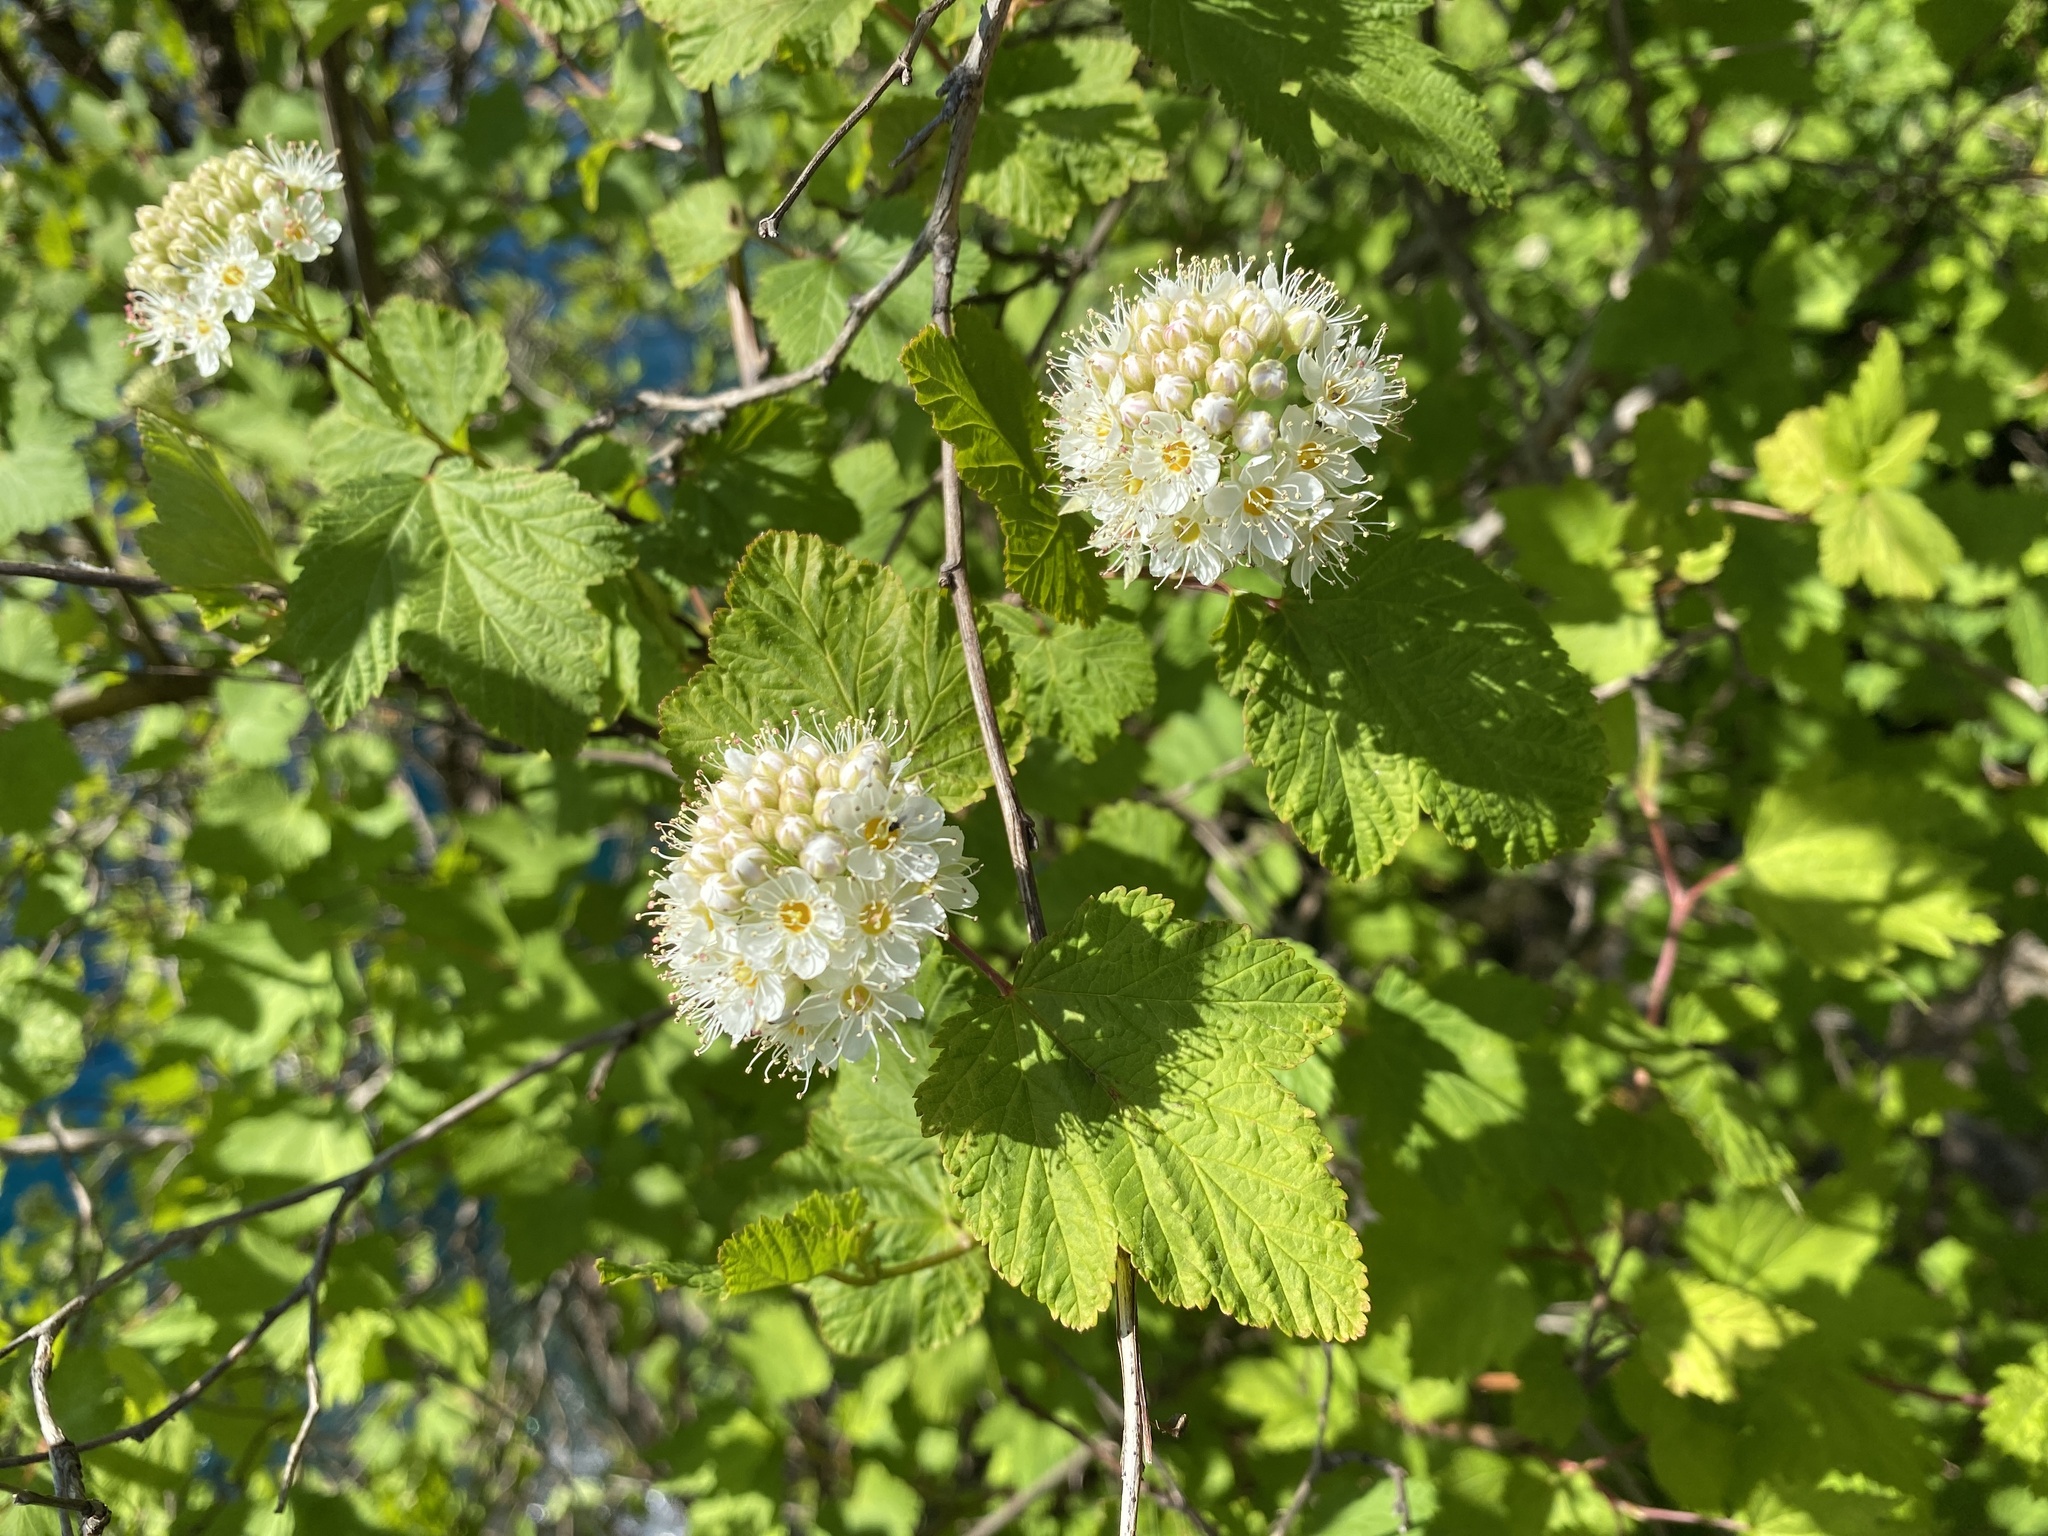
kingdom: Plantae
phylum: Tracheophyta
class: Magnoliopsida
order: Rosales
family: Rosaceae
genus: Physocarpus
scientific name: Physocarpus capitatus
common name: Pacific ninebark
